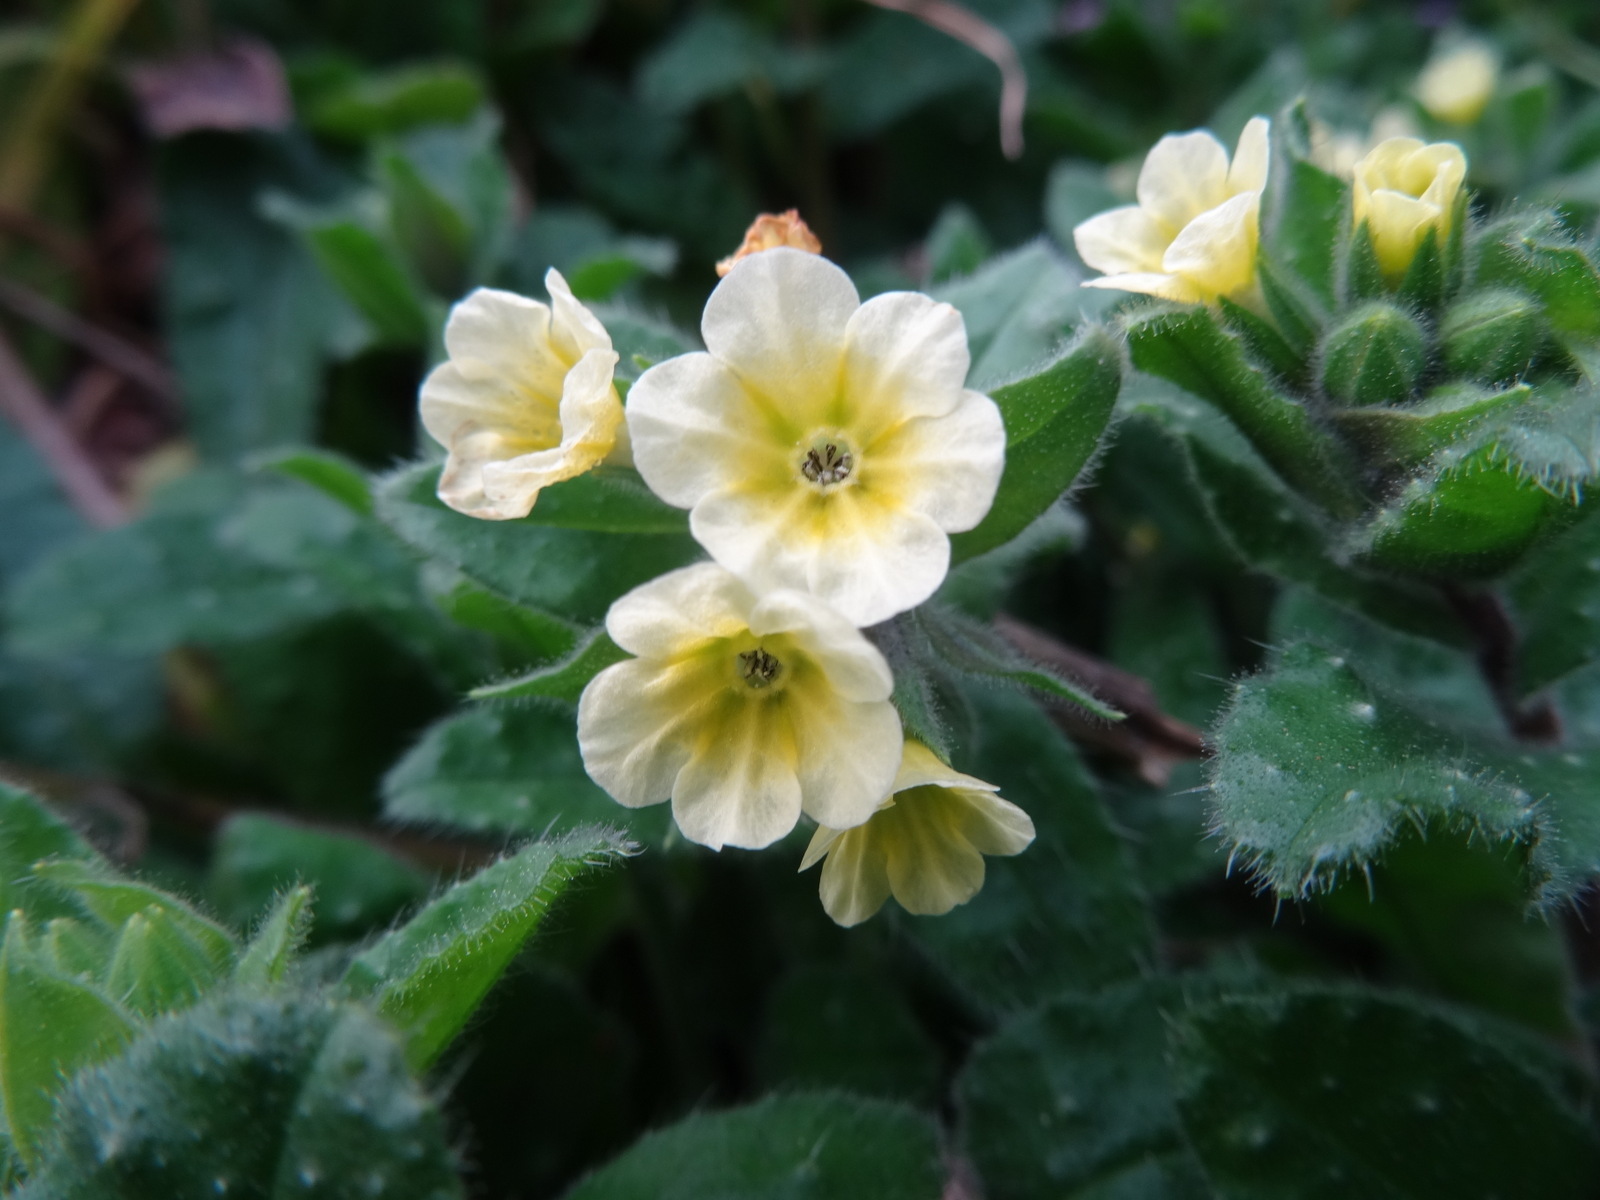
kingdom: Plantae
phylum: Tracheophyta
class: Magnoliopsida
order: Boraginales
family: Boraginaceae
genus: Nonea
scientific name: Nonea lutea
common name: Yellow nonea
